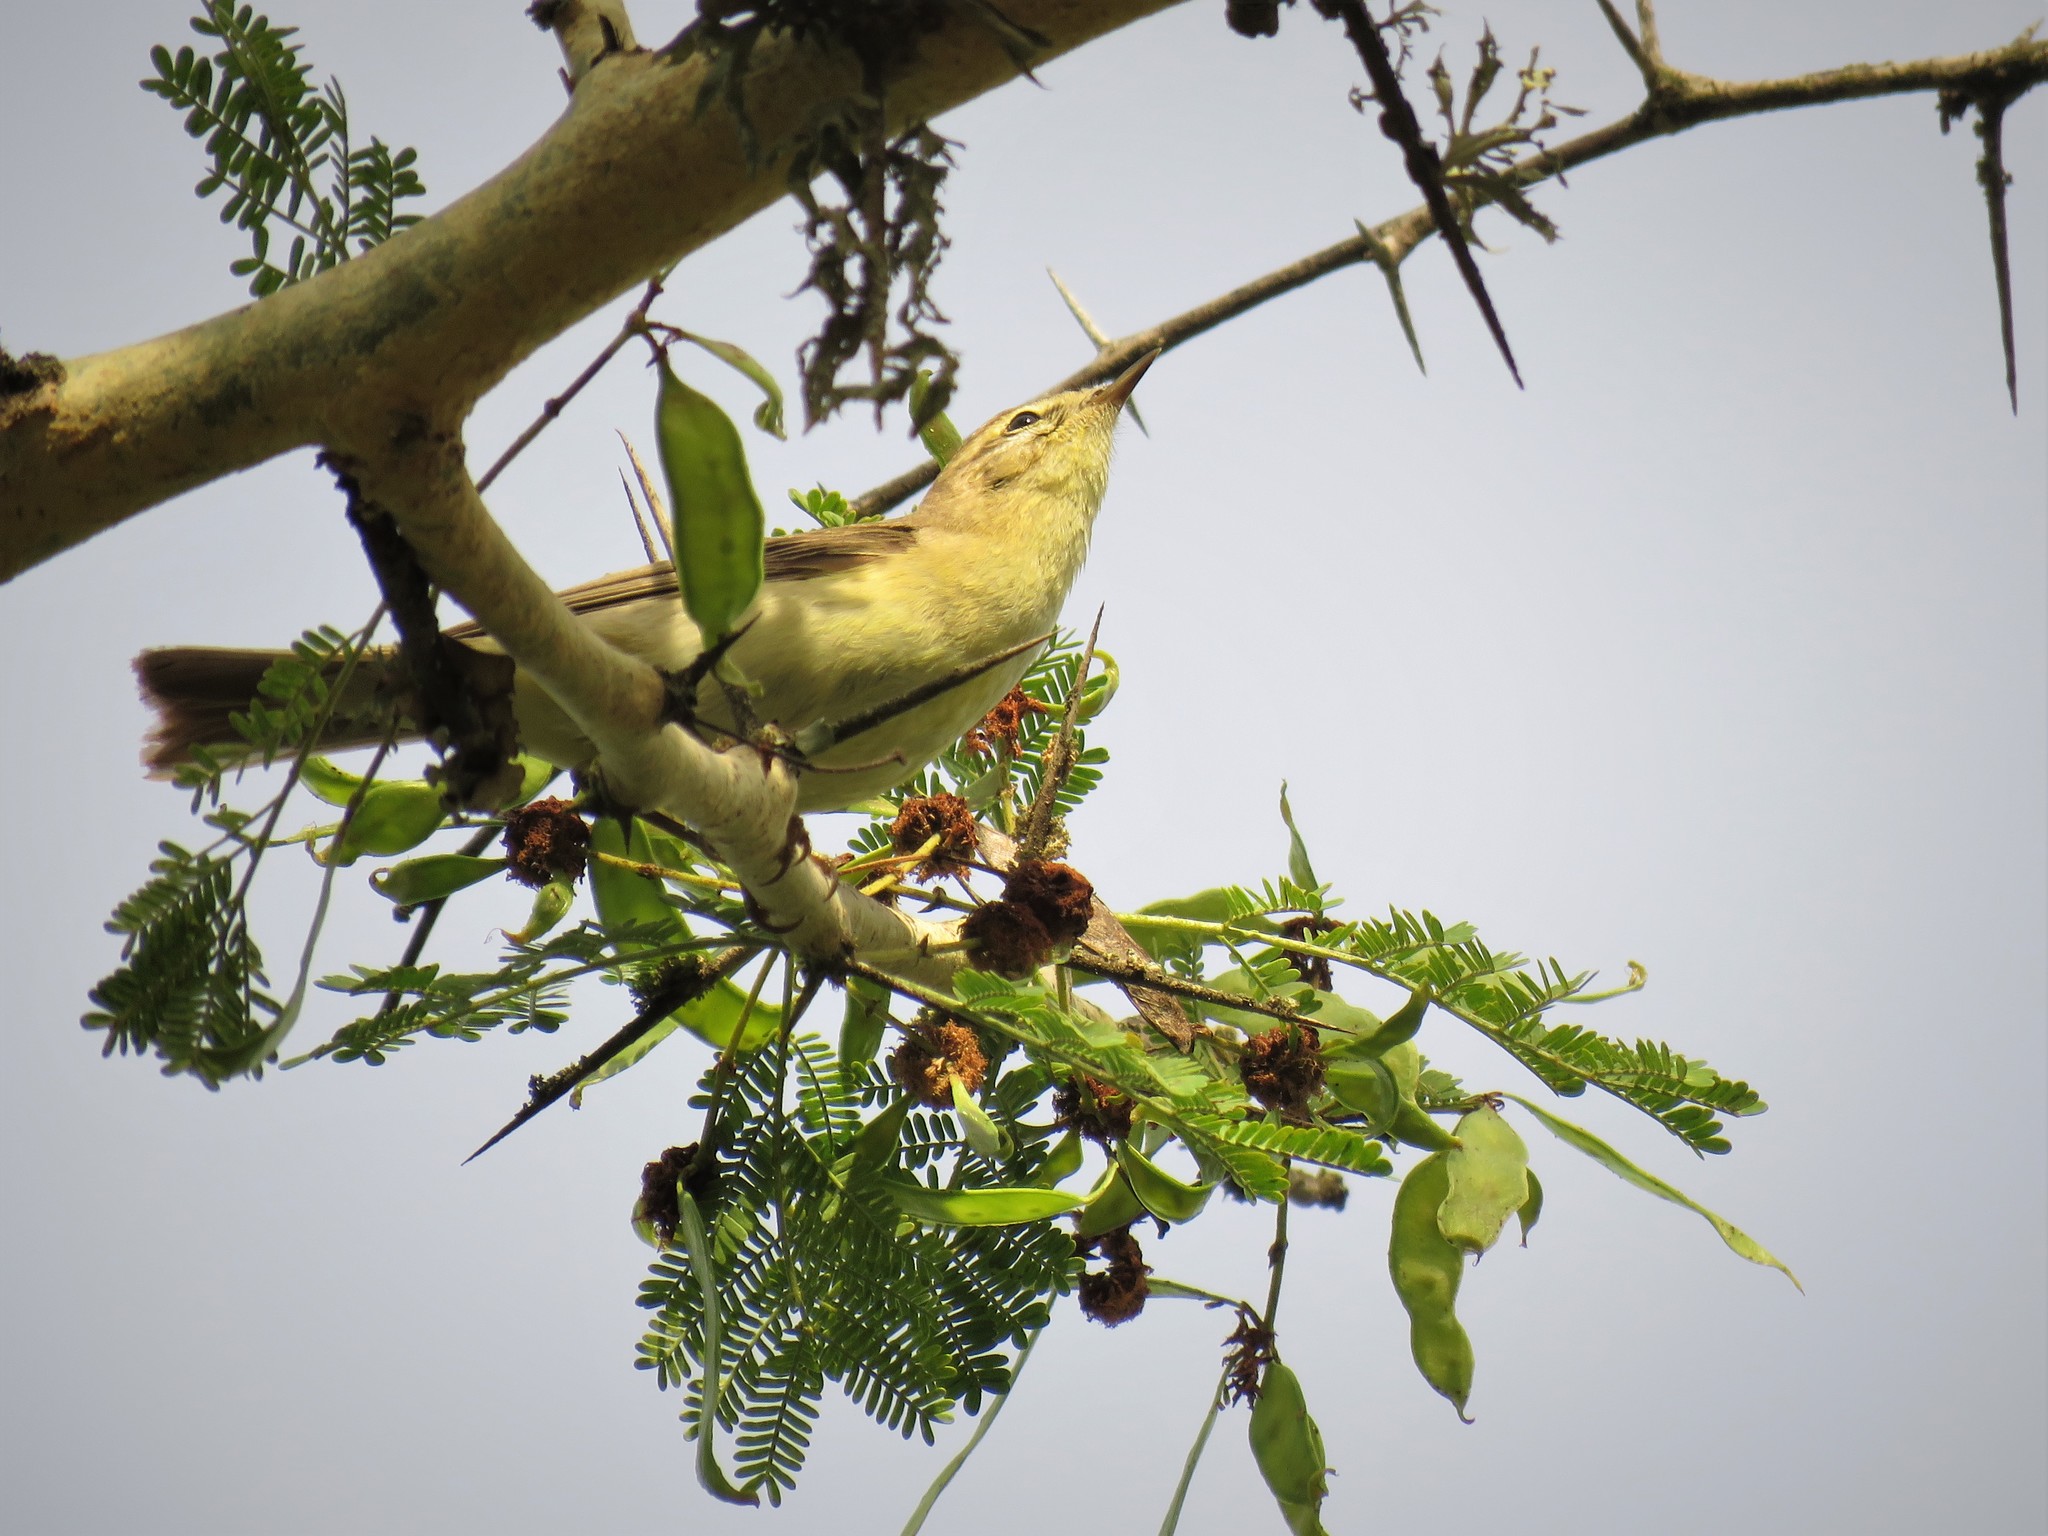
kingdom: Animalia
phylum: Chordata
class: Aves
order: Passeriformes
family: Phylloscopidae
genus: Phylloscopus
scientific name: Phylloscopus trochilus
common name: Willow warbler
